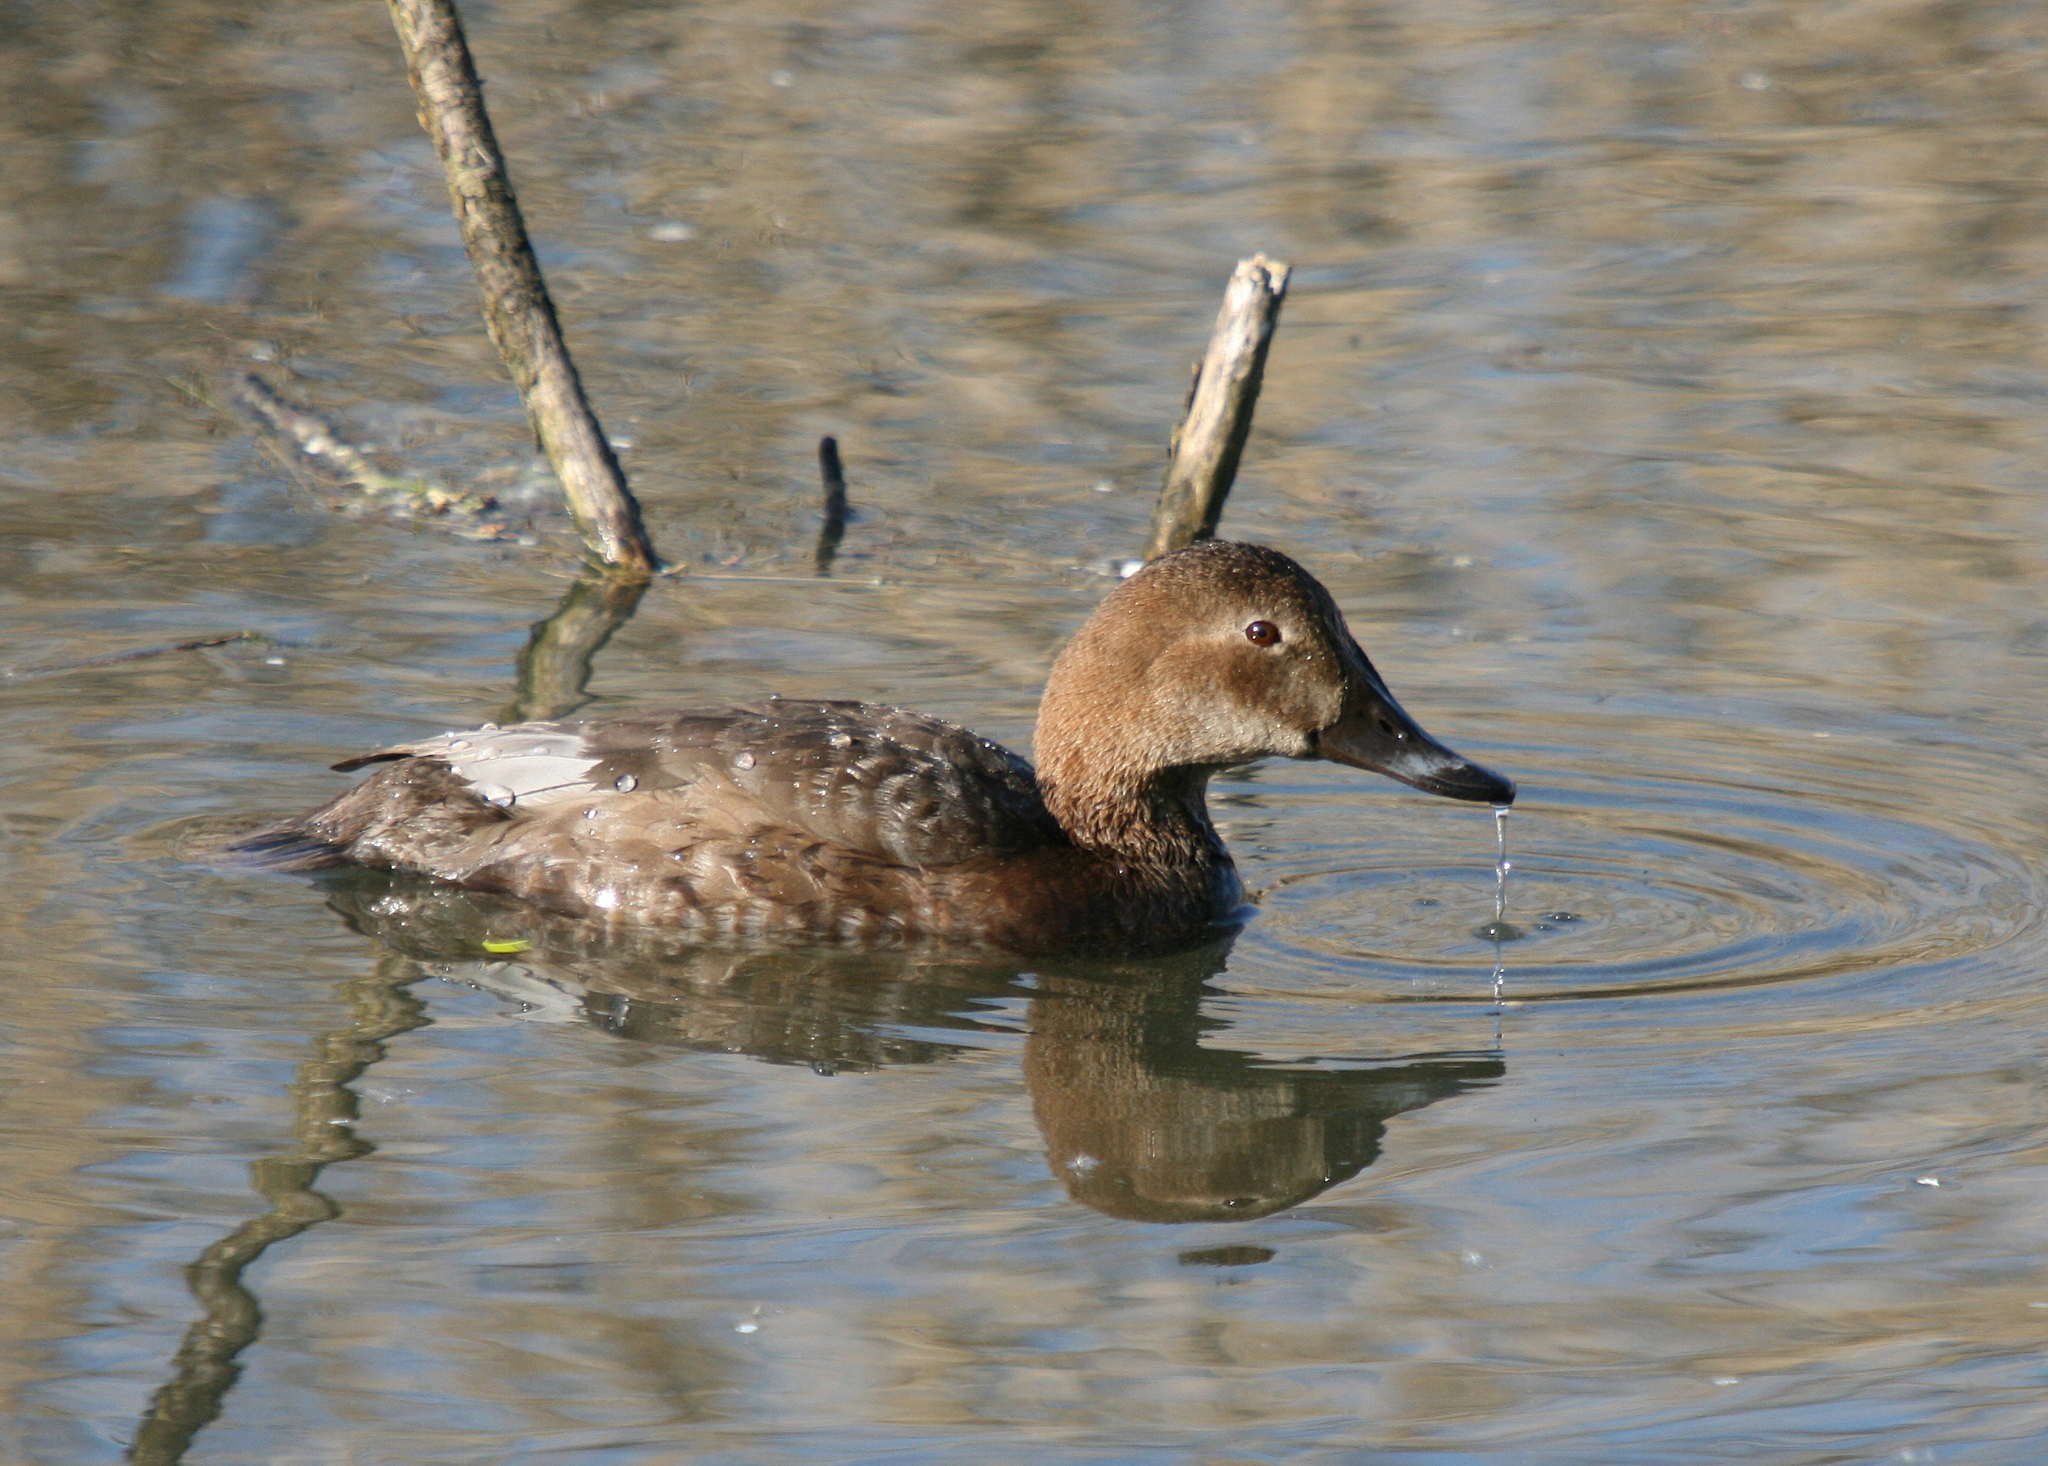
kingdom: Animalia
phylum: Chordata
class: Aves
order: Anseriformes
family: Anatidae
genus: Aythya
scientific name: Aythya ferina
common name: Common pochard
